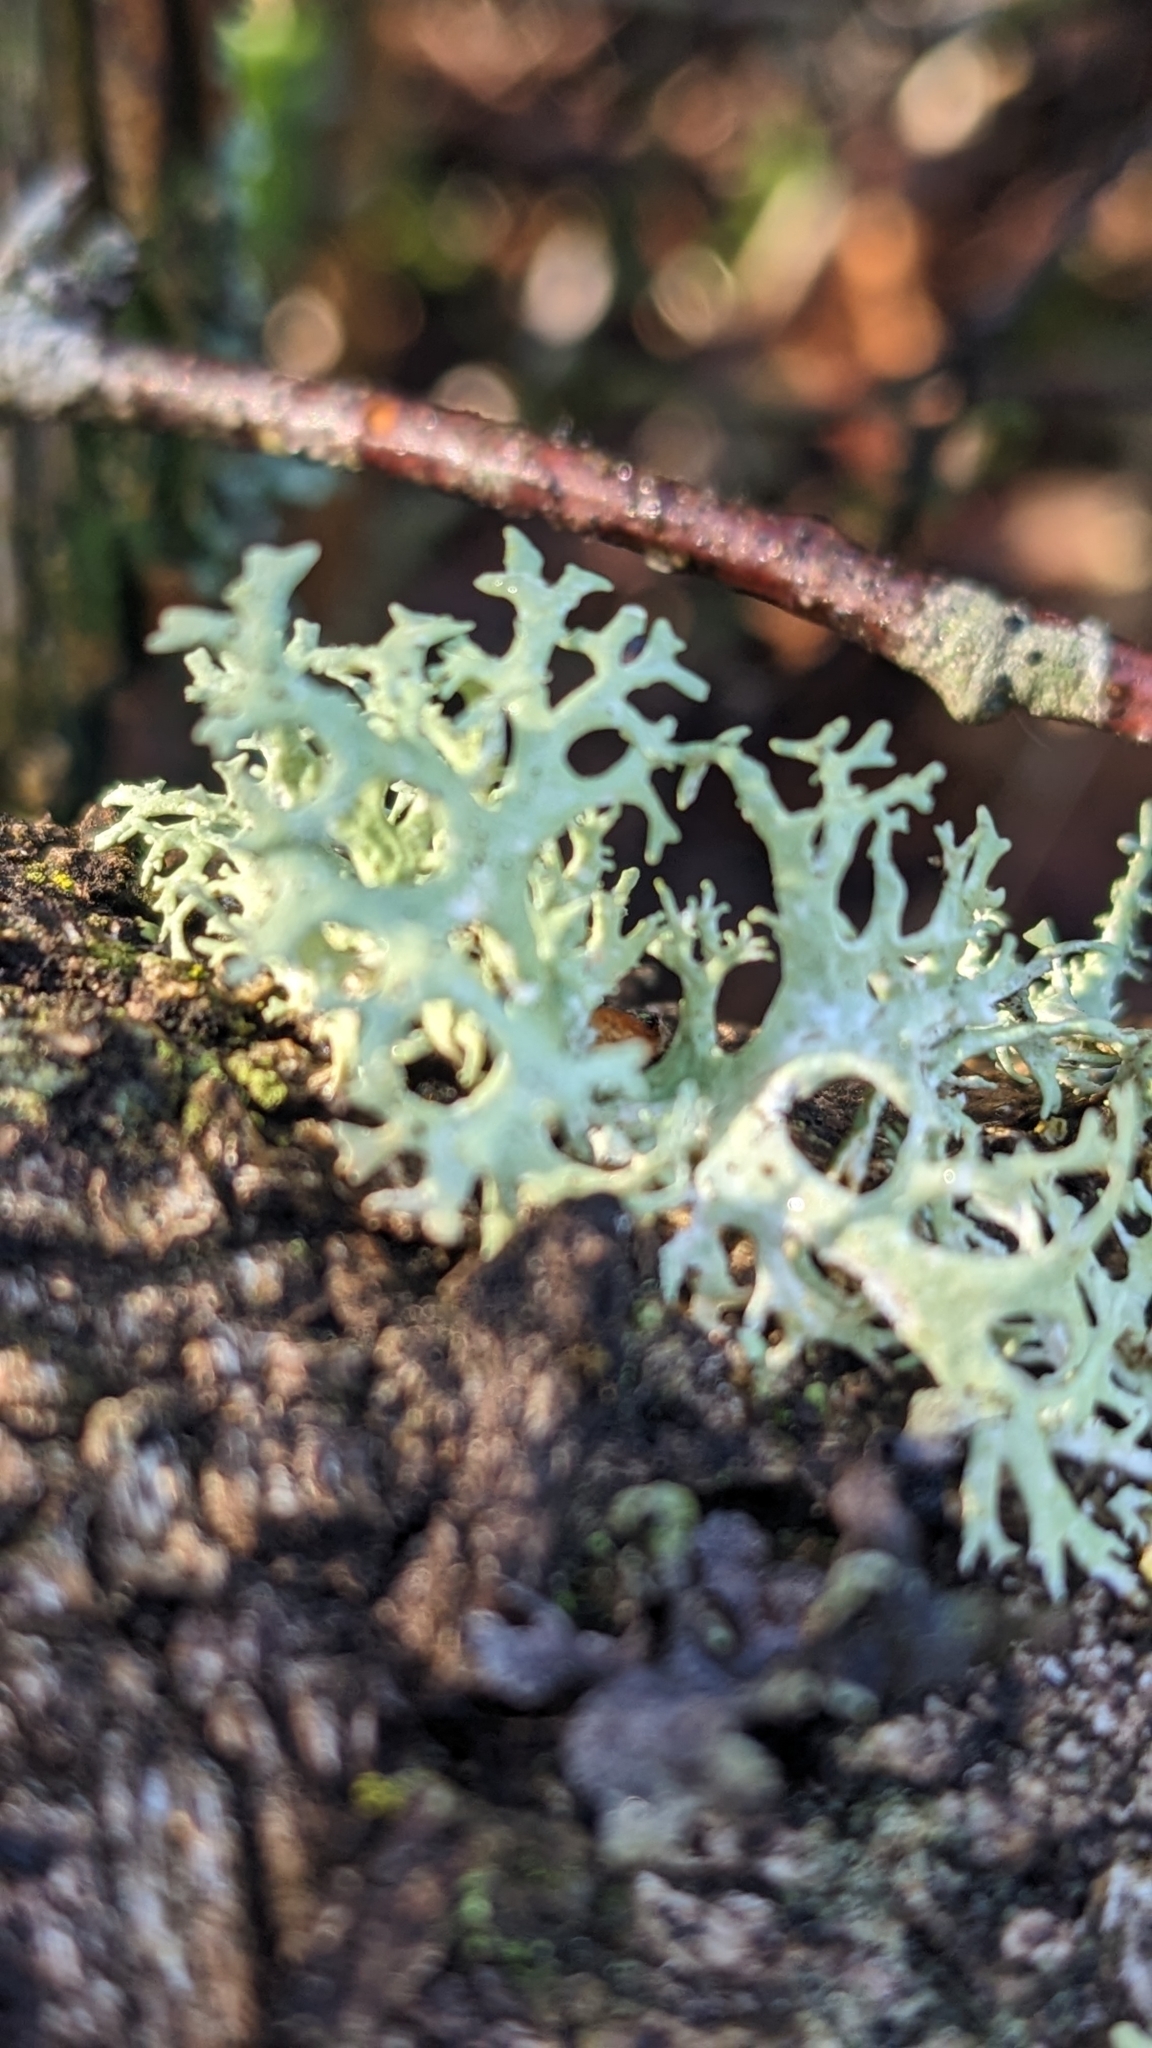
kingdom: Fungi
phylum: Ascomycota
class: Lecanoromycetes
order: Lecanorales
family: Parmeliaceae
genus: Evernia
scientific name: Evernia prunastri
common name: Oak moss
